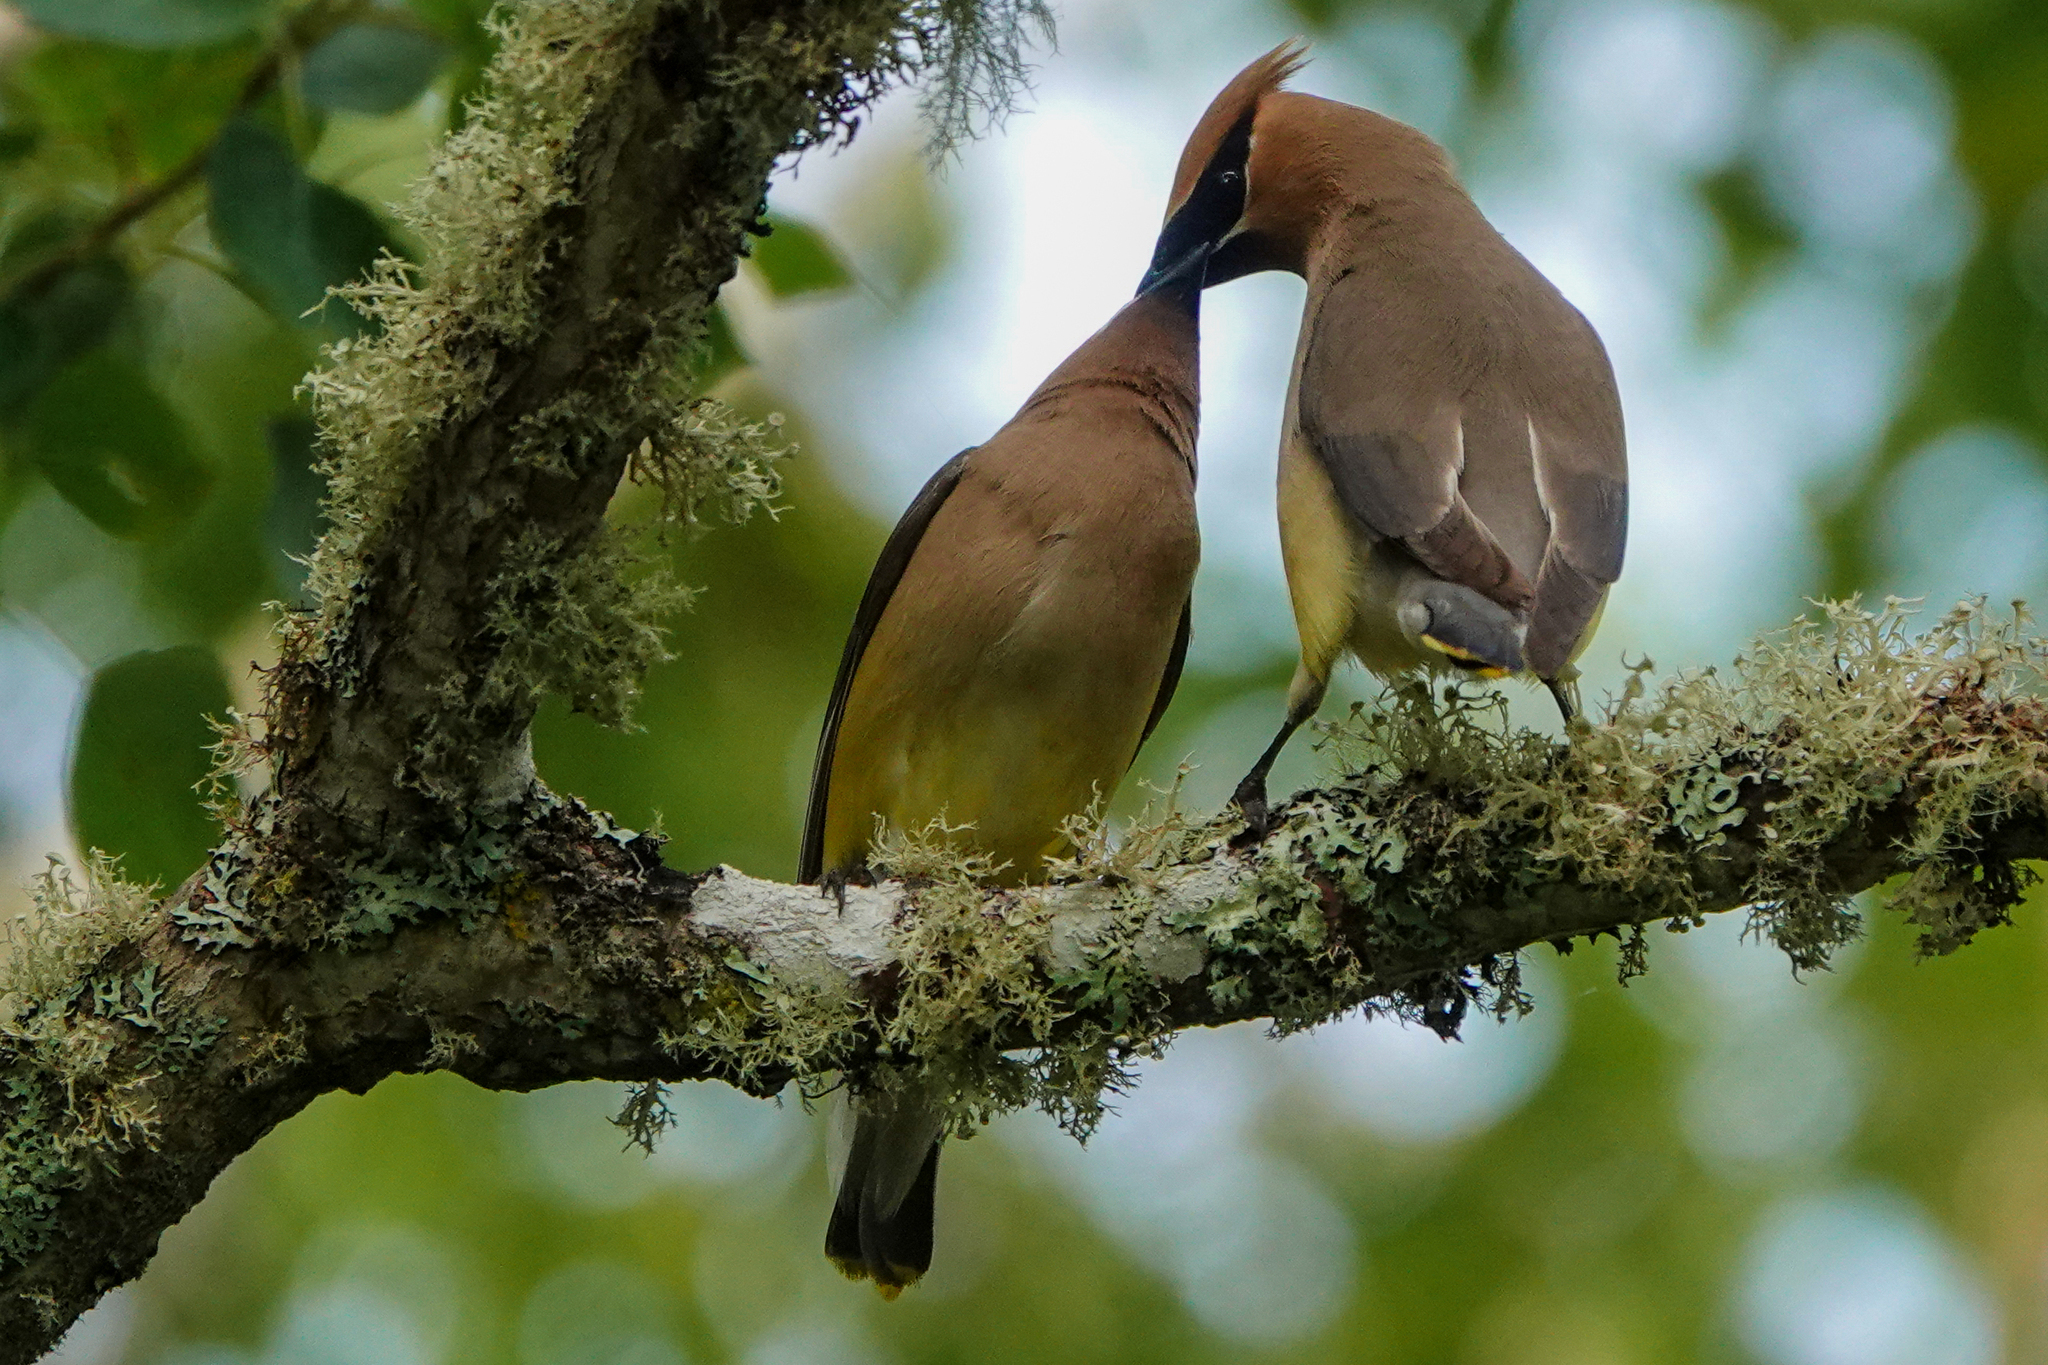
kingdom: Animalia
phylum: Chordata
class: Aves
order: Passeriformes
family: Bombycillidae
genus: Bombycilla
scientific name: Bombycilla cedrorum
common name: Cedar waxwing
